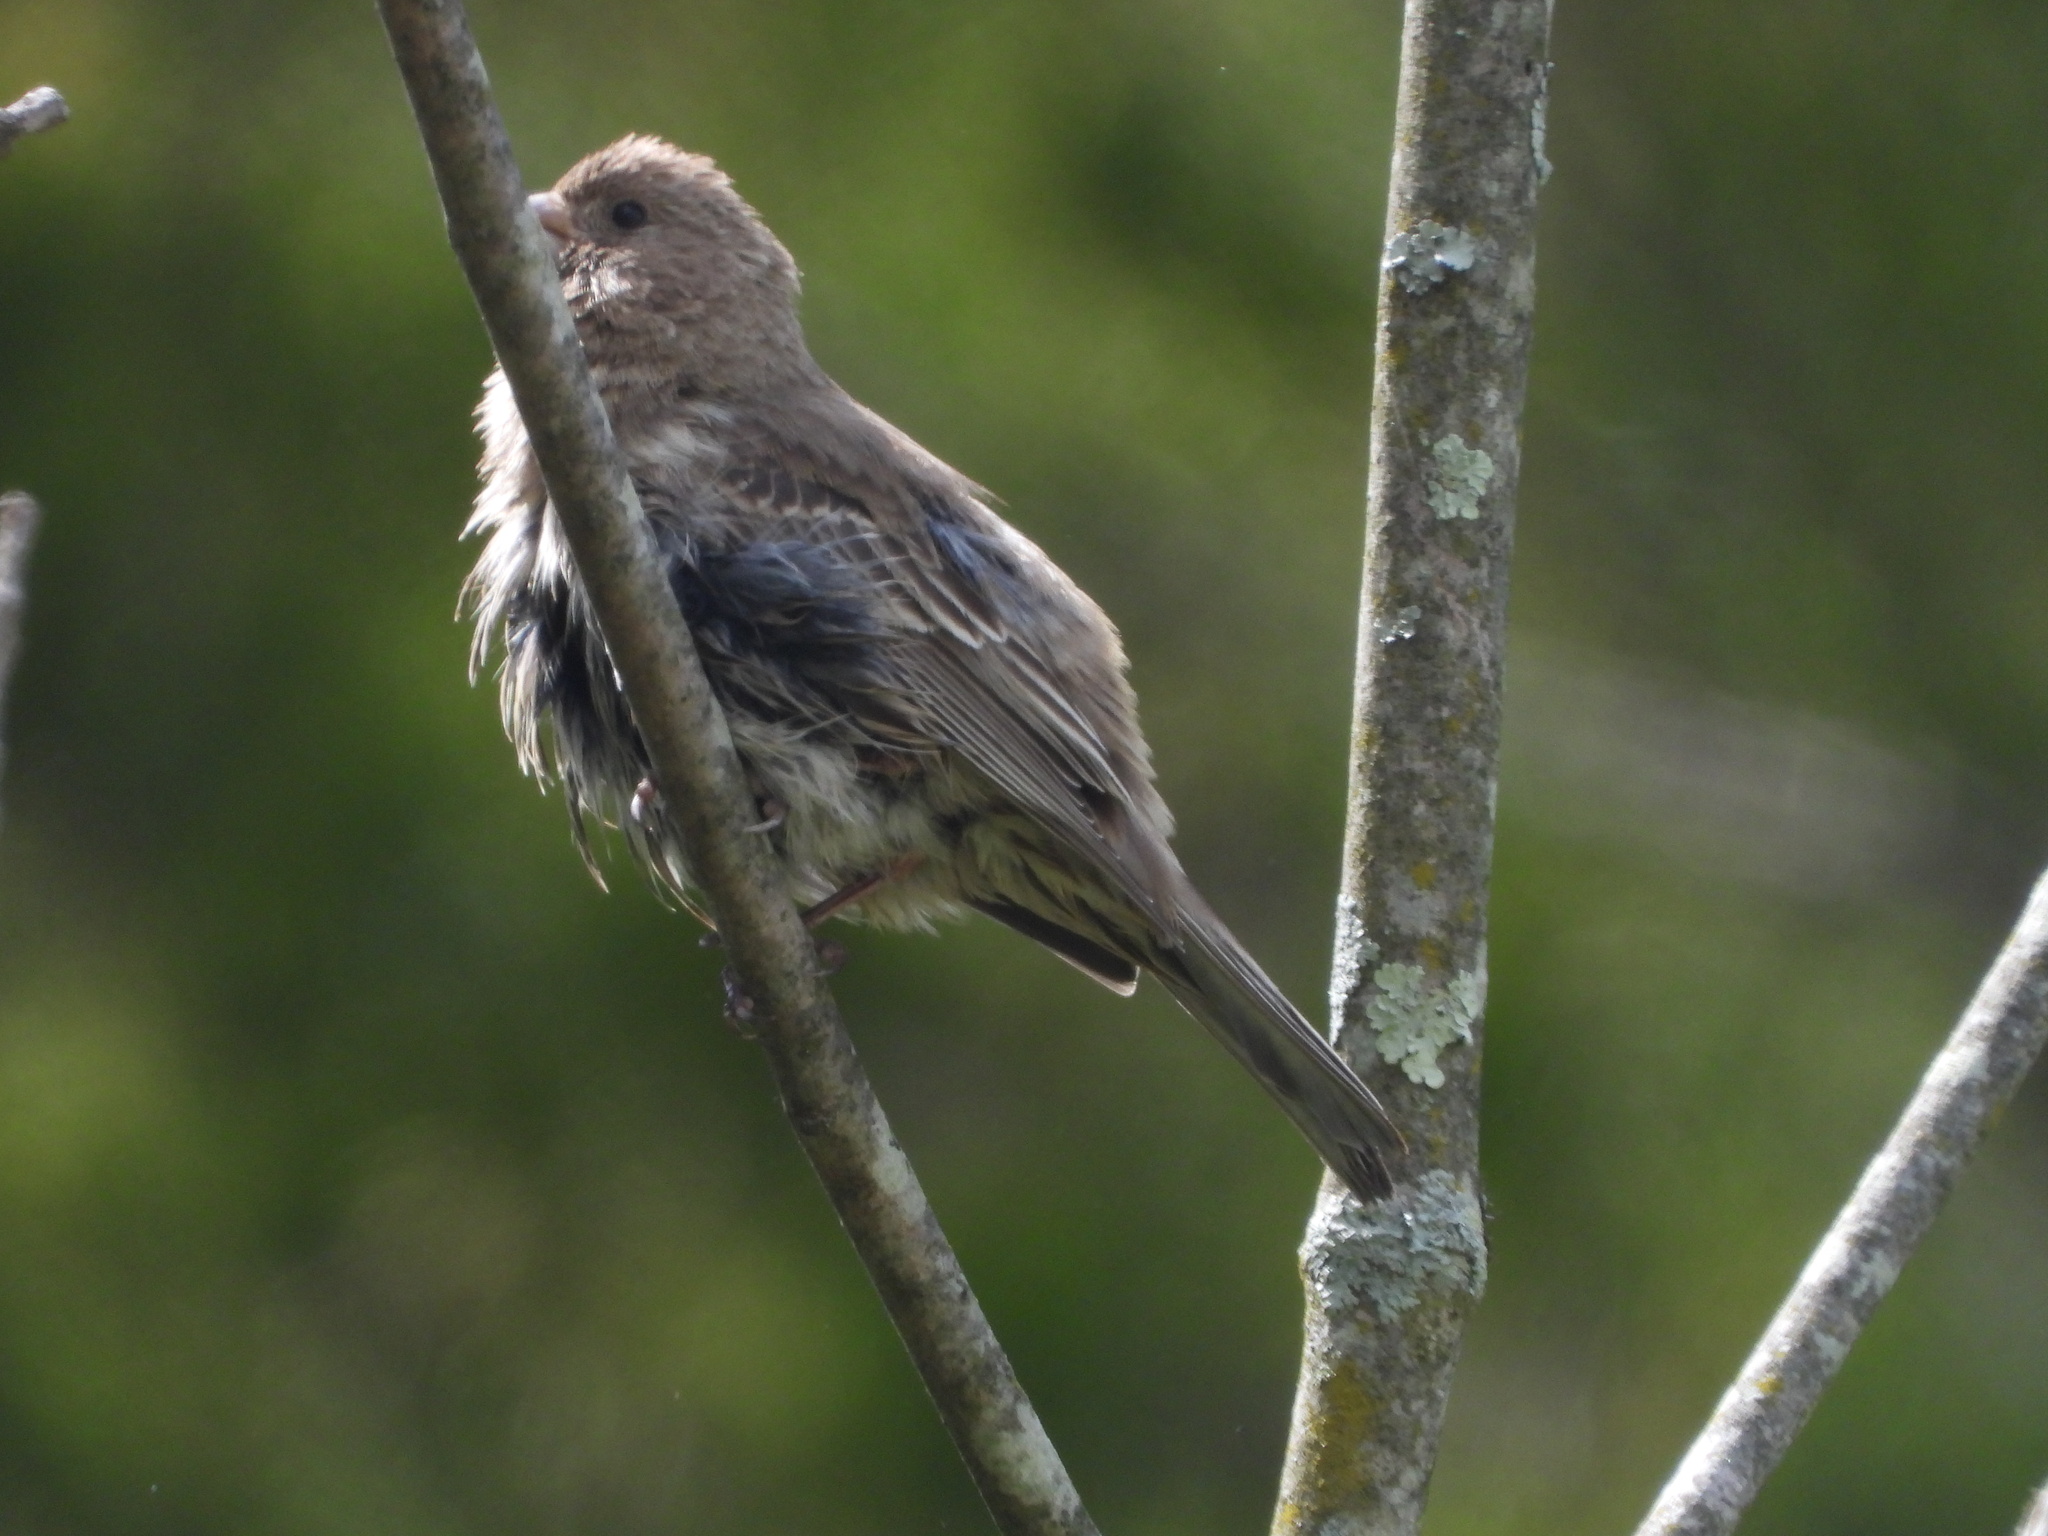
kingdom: Animalia
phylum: Chordata
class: Aves
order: Passeriformes
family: Fringillidae
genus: Haemorhous
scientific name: Haemorhous mexicanus
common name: House finch
